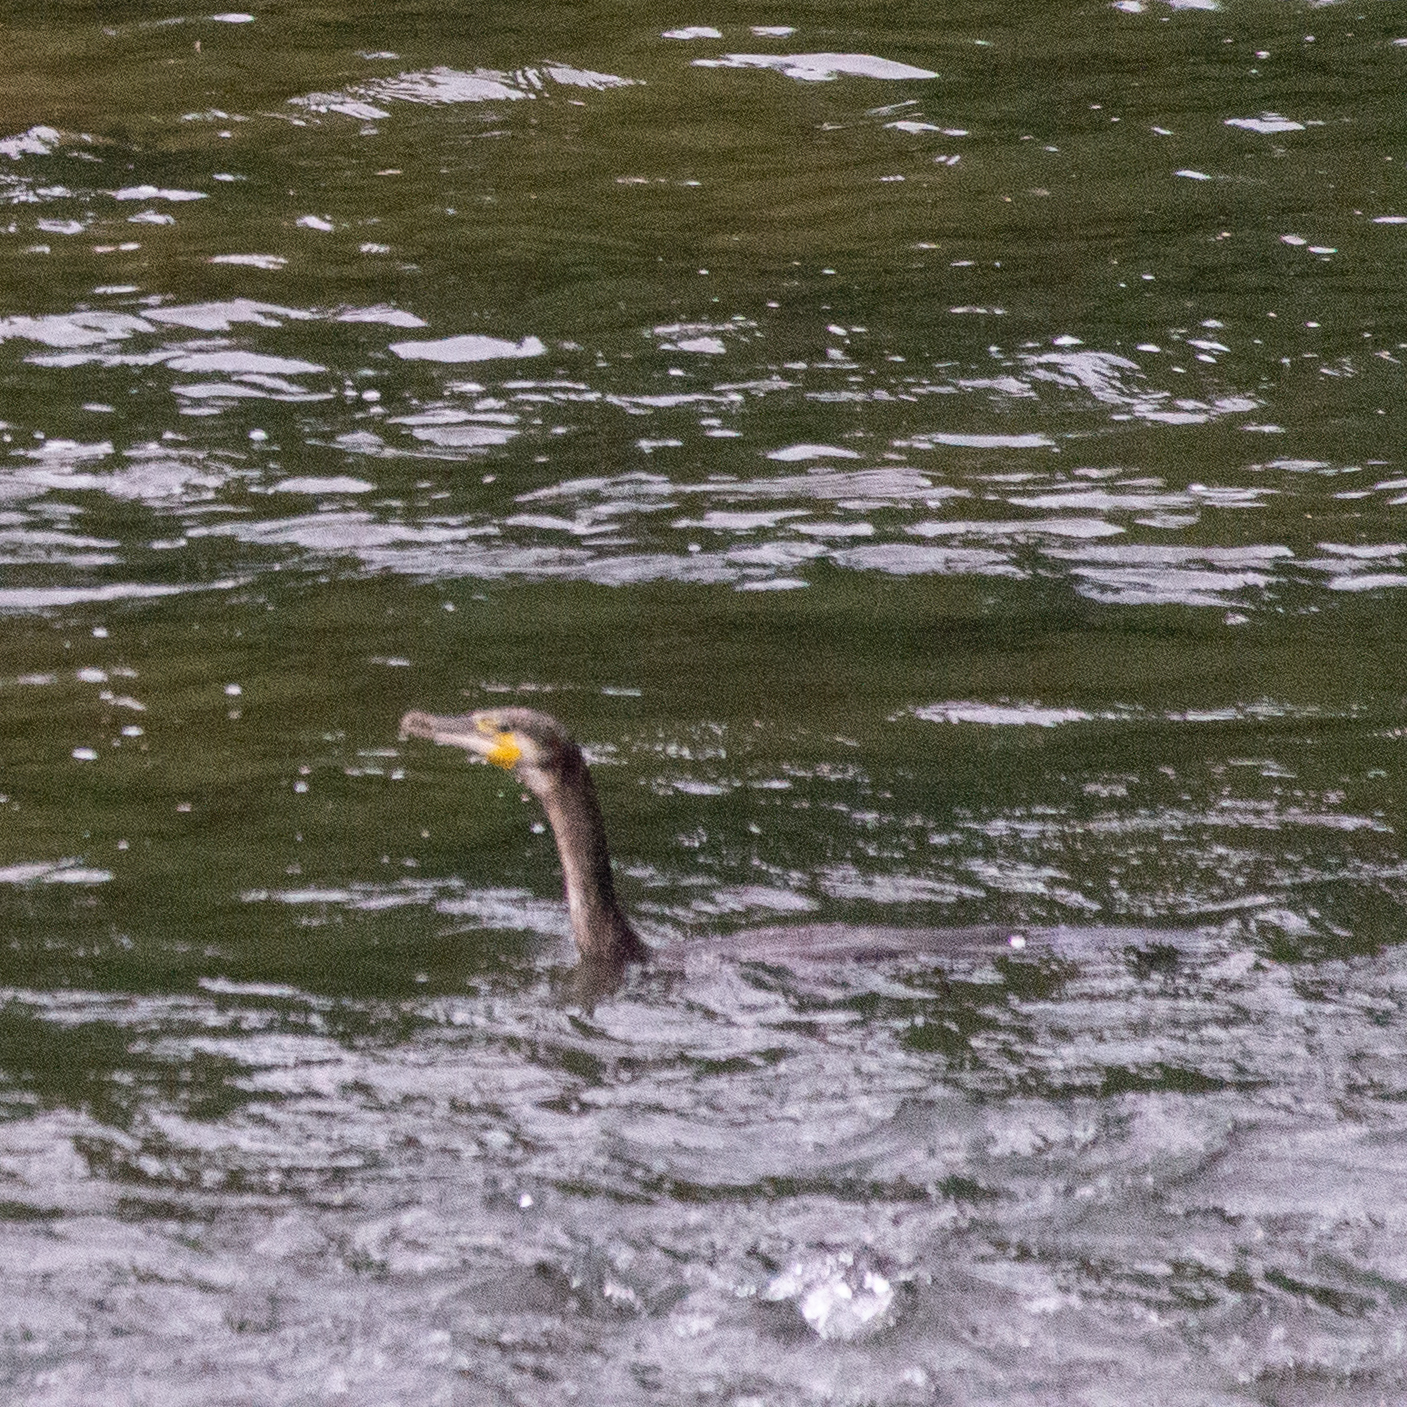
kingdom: Animalia
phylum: Chordata
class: Aves
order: Suliformes
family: Phalacrocoracidae
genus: Phalacrocorax
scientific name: Phalacrocorax carbo
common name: Great cormorant
